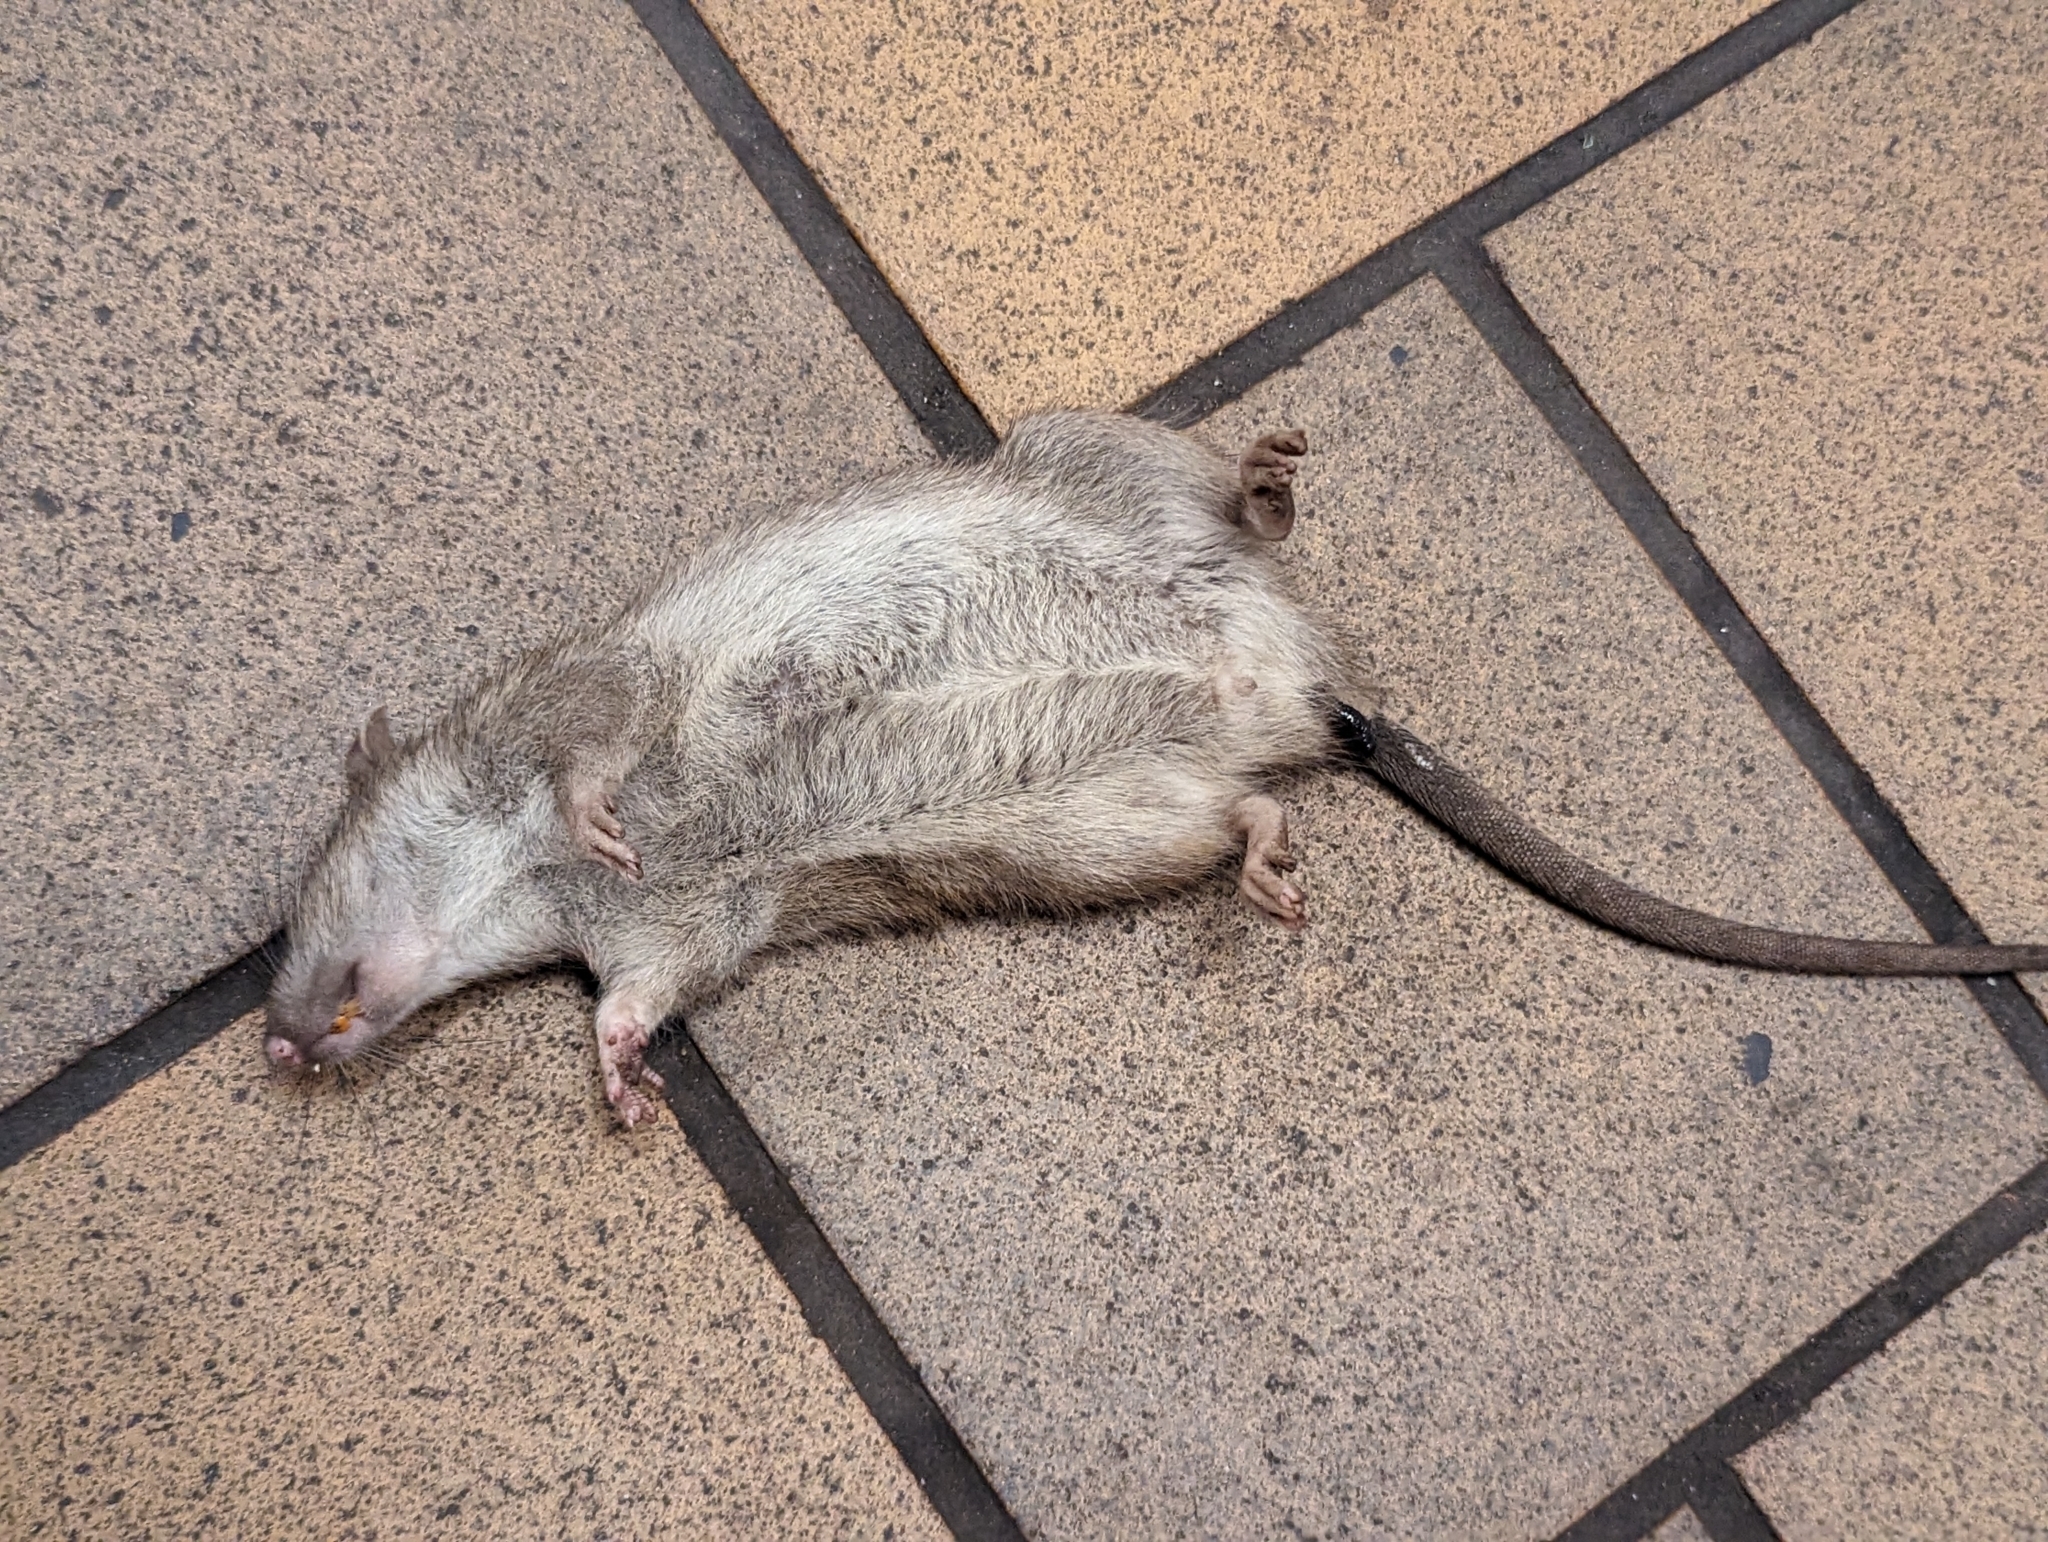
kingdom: Animalia
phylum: Chordata
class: Mammalia
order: Rodentia
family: Muridae
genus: Rattus
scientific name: Rattus norvegicus
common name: Brown rat
